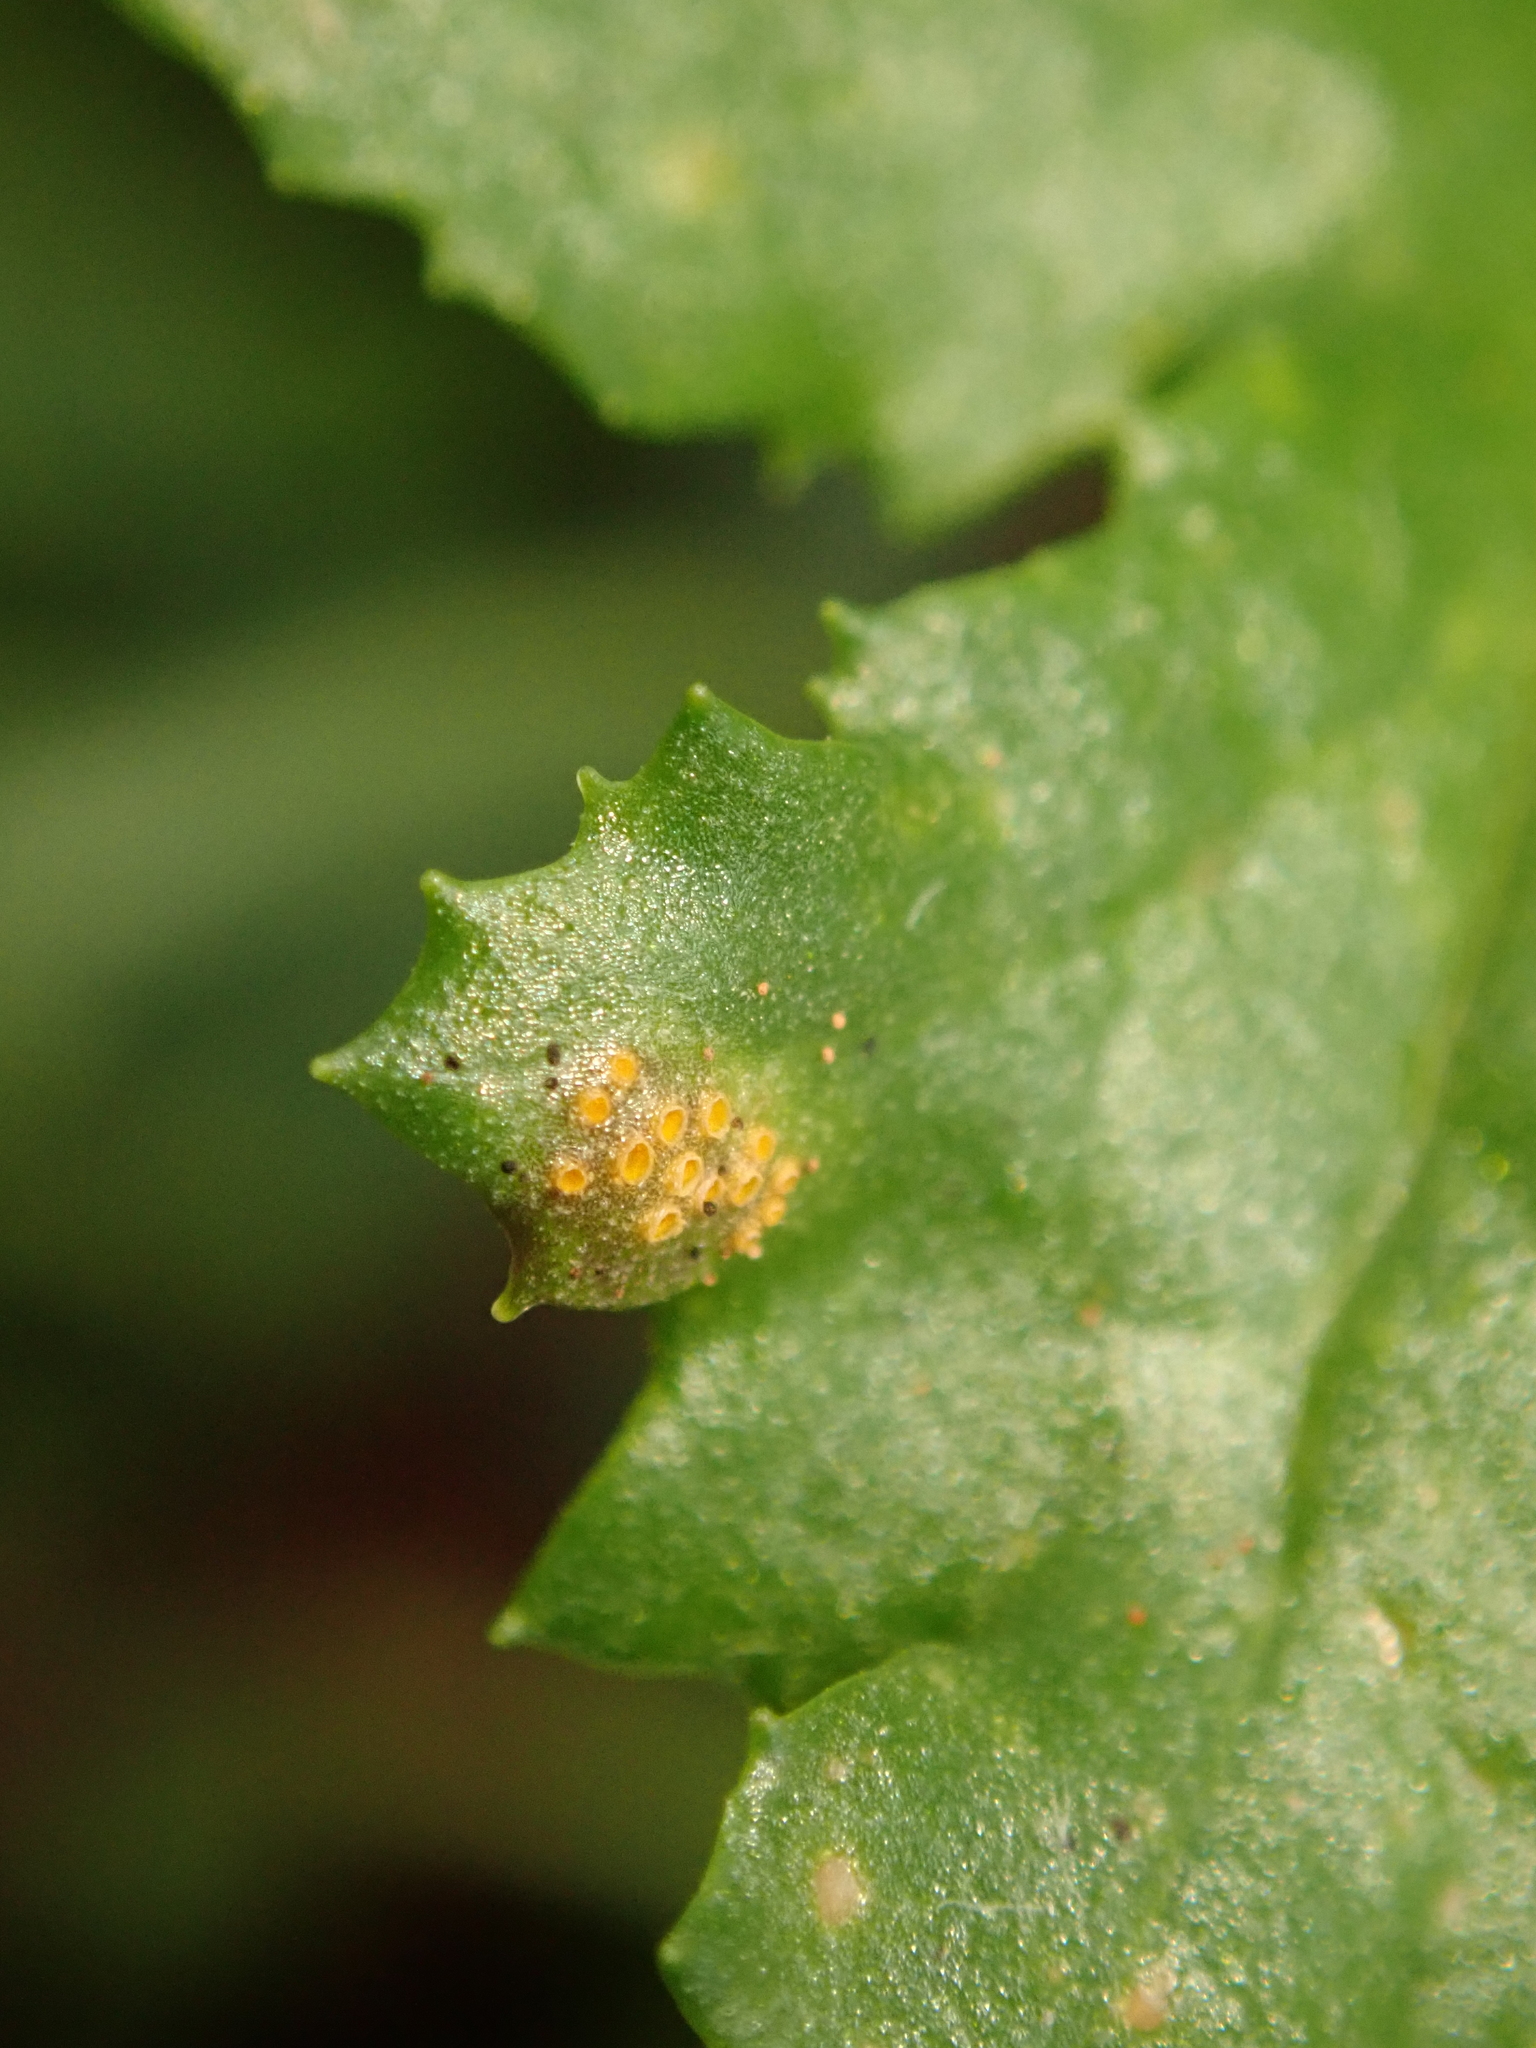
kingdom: Fungi
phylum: Basidiomycota
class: Pucciniomycetes
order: Pucciniales
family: Pucciniaceae
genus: Puccinia
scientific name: Puccinia lagenophorae
